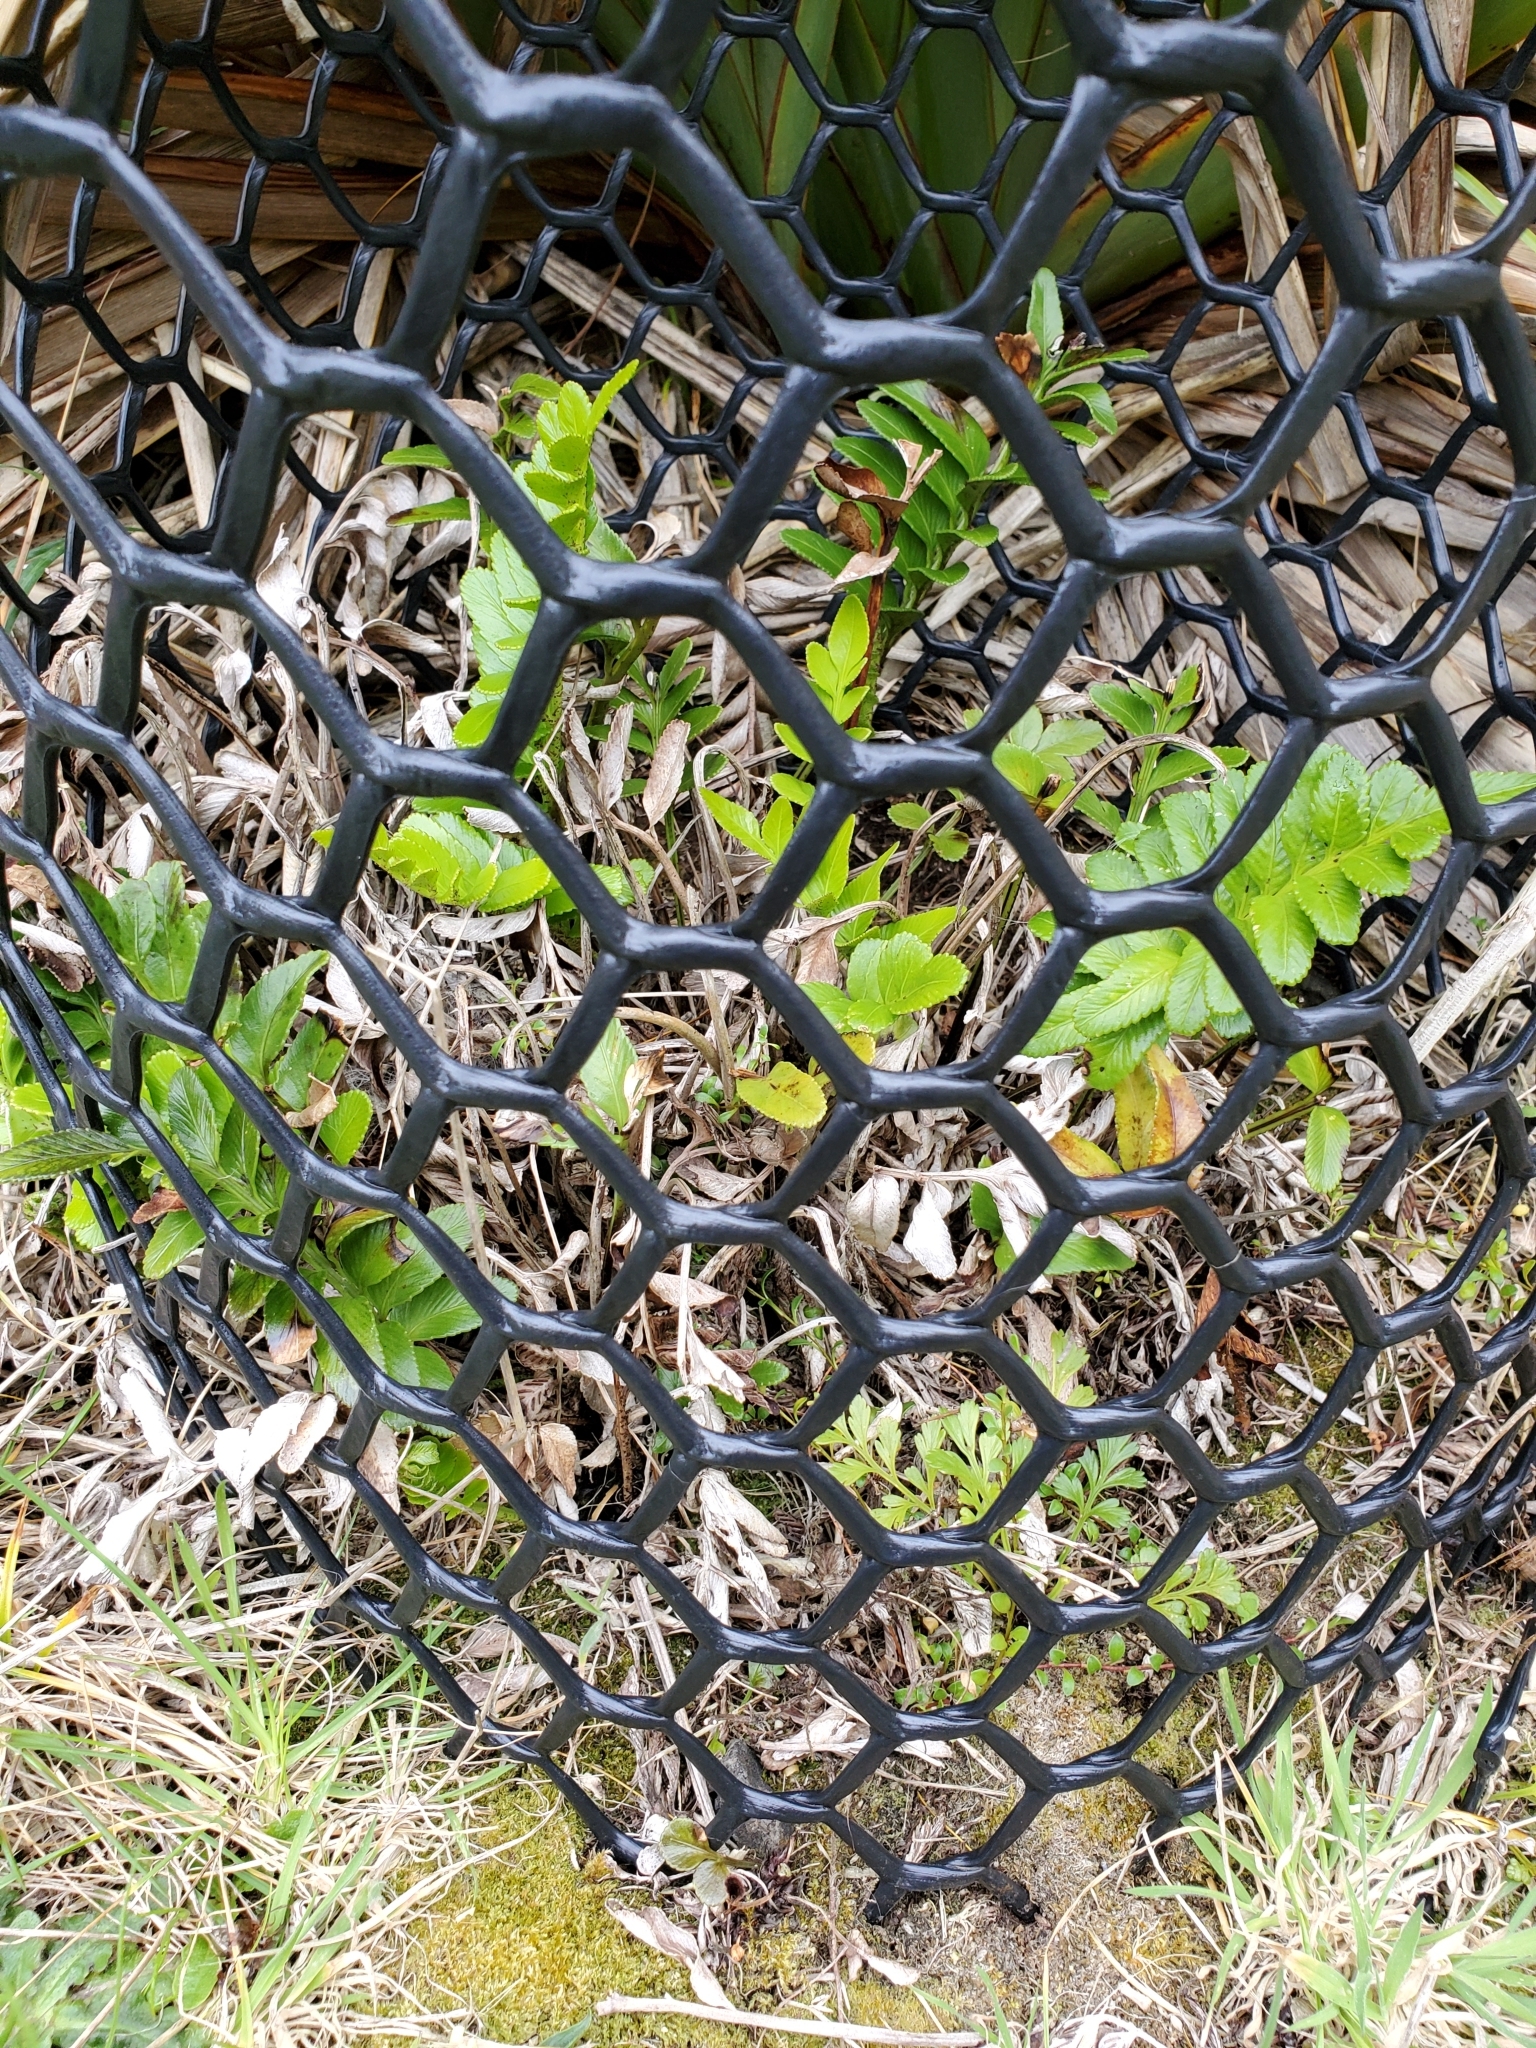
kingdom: Plantae
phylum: Tracheophyta
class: Polypodiopsida
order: Polypodiales
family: Aspleniaceae
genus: Asplenium
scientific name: Asplenium obtusatum
